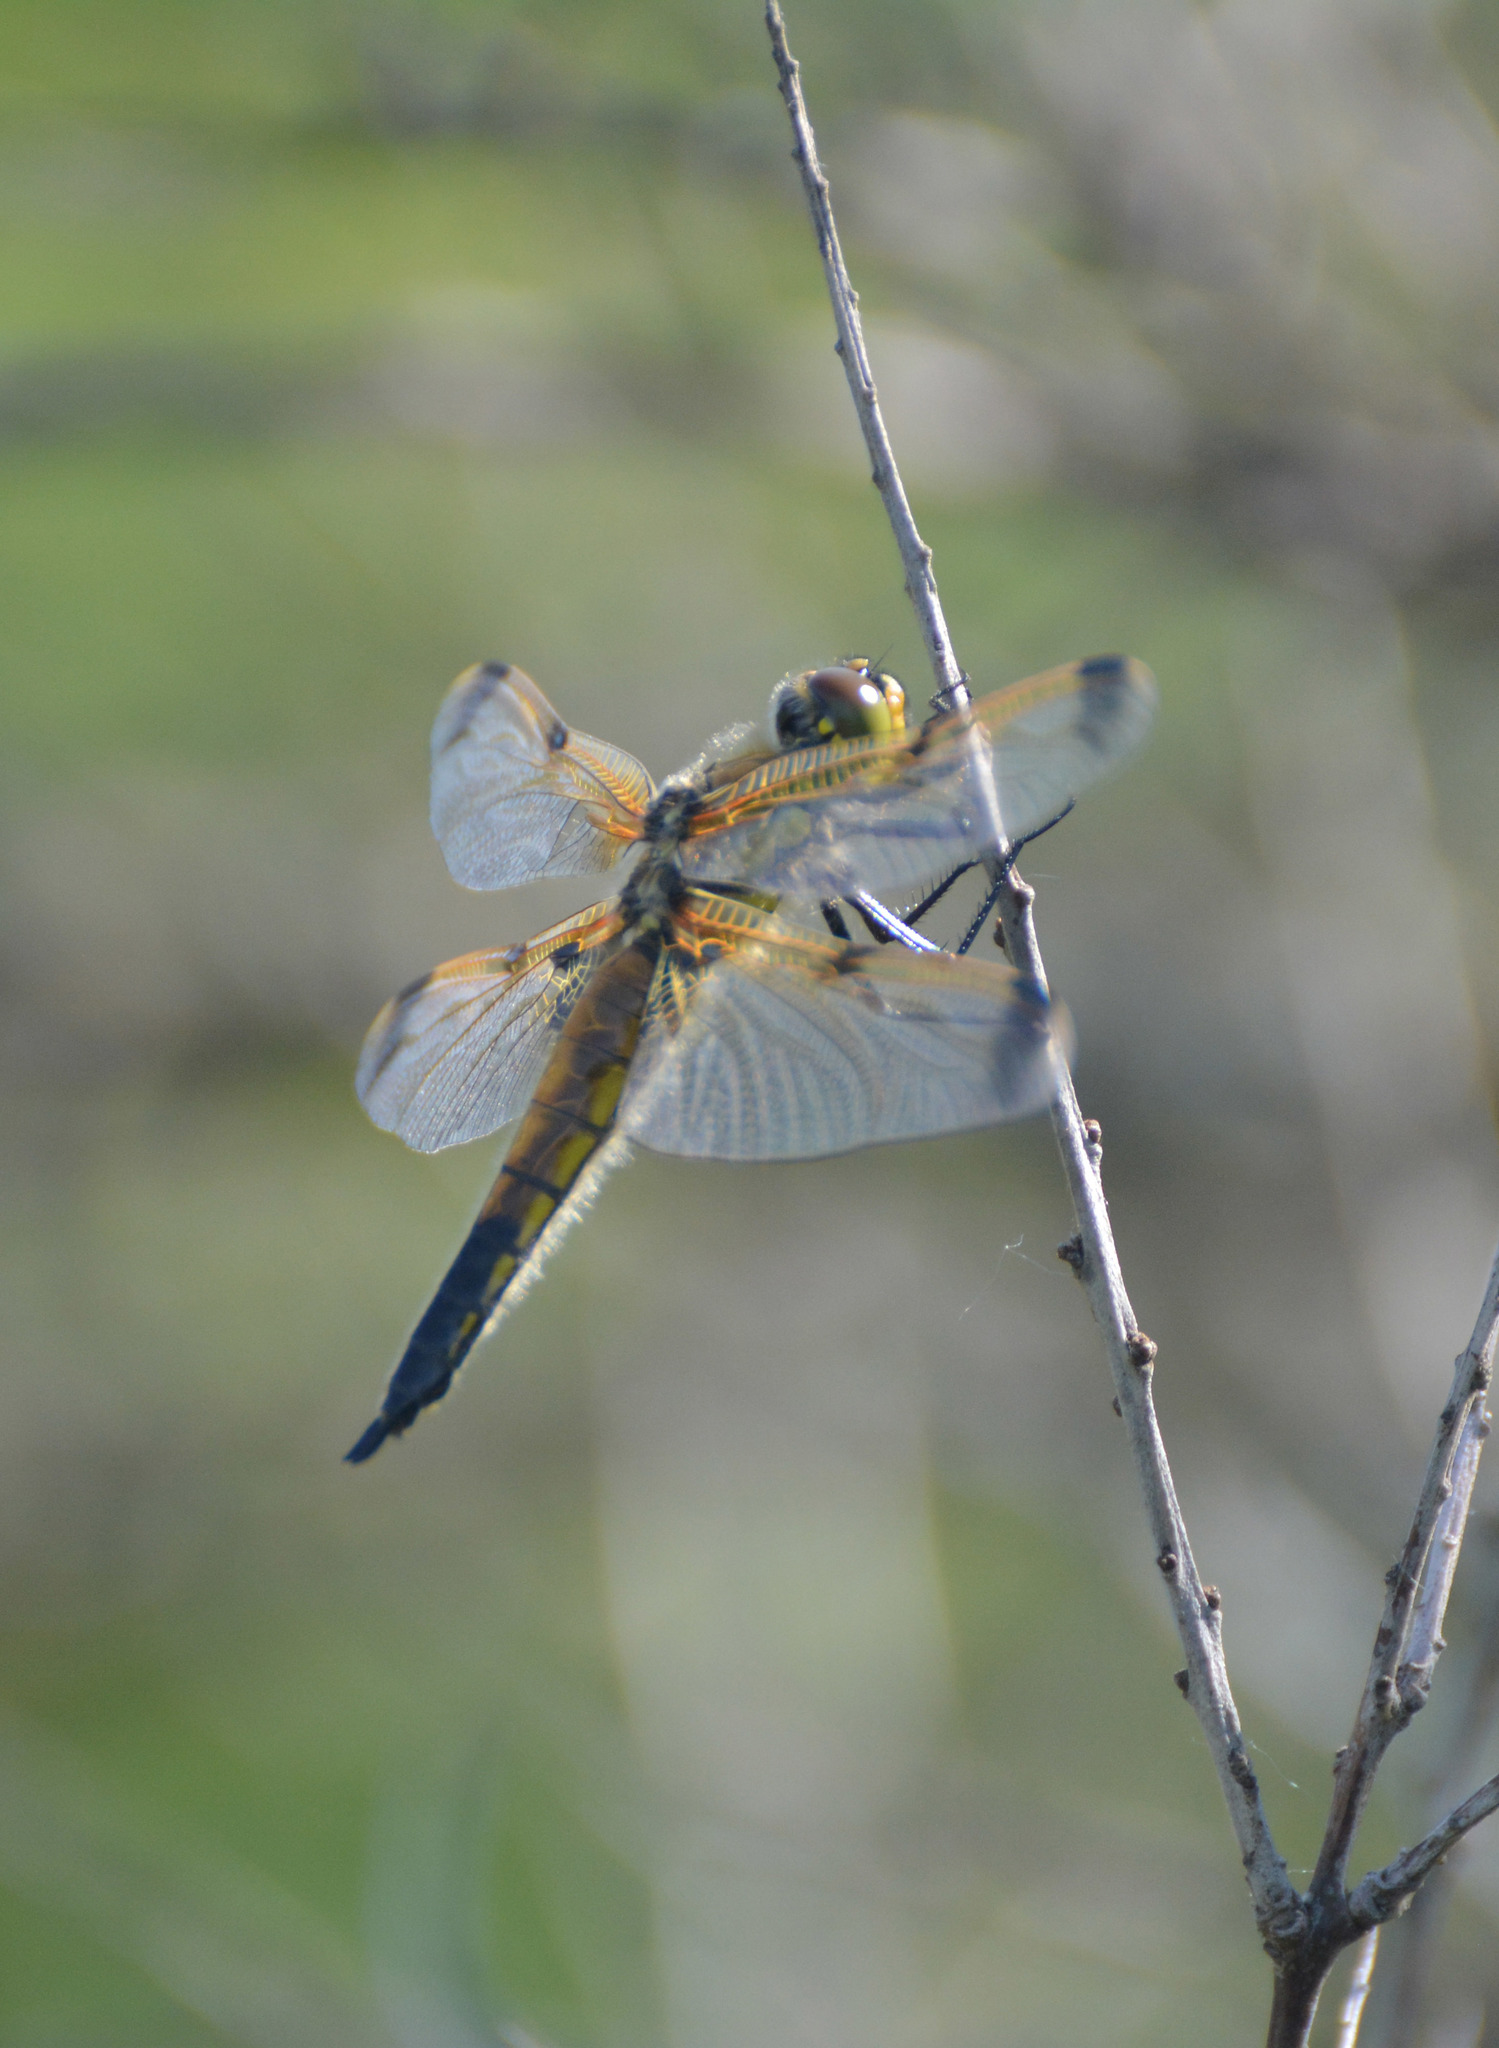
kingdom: Animalia
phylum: Arthropoda
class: Insecta
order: Odonata
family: Libellulidae
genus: Libellula
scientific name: Libellula quadrimaculata
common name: Four-spotted chaser
